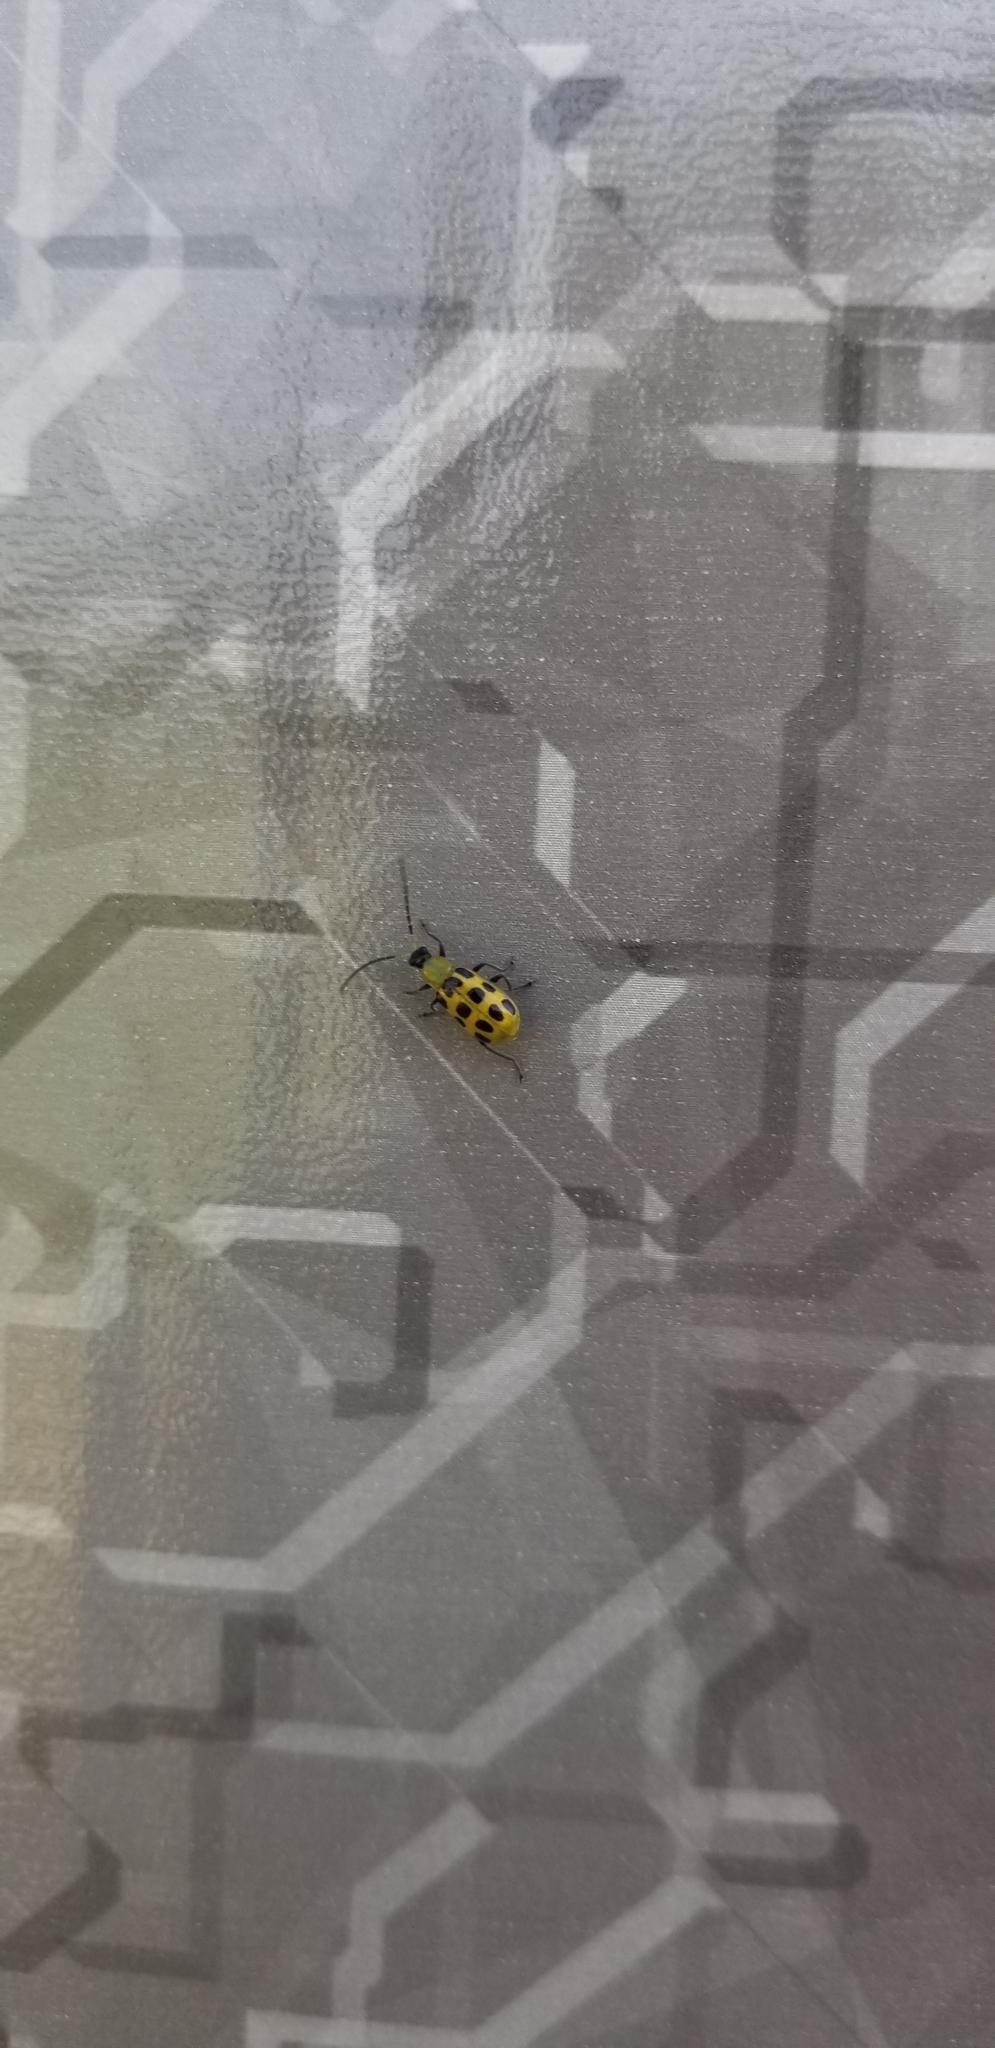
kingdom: Animalia
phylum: Arthropoda
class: Insecta
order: Coleoptera
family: Chrysomelidae
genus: Diabrotica
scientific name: Diabrotica undecimpunctata
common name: Spotted cucumber beetle
